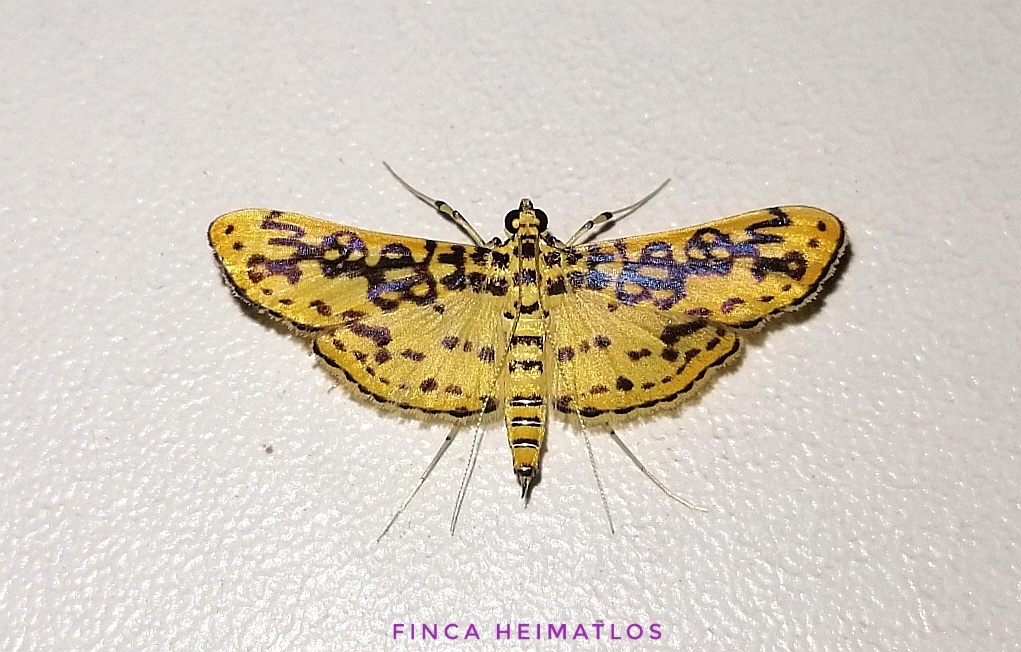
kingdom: Animalia
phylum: Arthropoda
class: Insecta
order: Lepidoptera
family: Crambidae
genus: Asturodes
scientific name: Asturodes fimbriauralis
